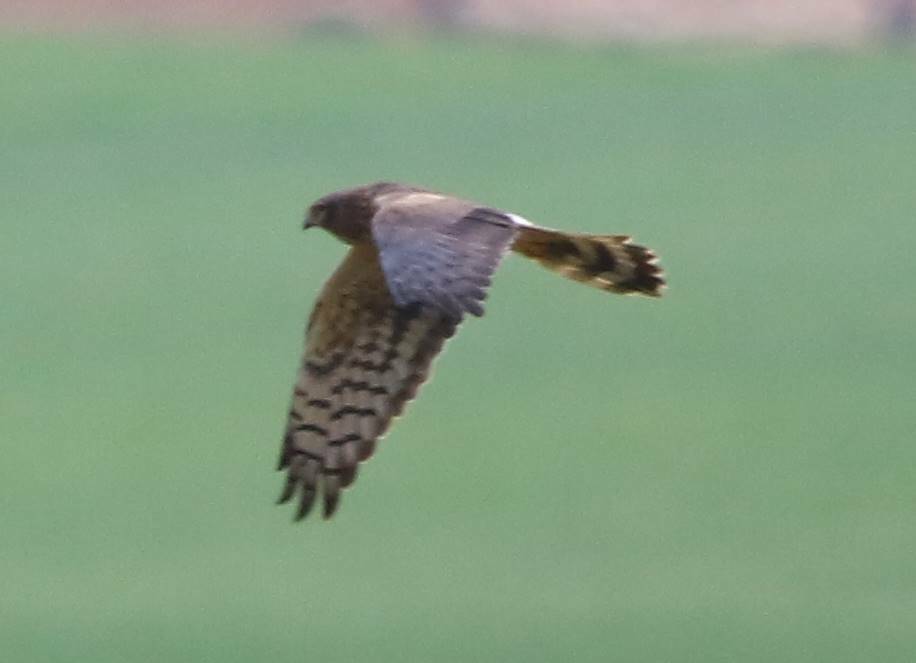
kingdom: Animalia
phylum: Chordata
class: Aves
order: Accipitriformes
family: Accipitridae
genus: Circus
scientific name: Circus pygargus
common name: Montagu's harrier
